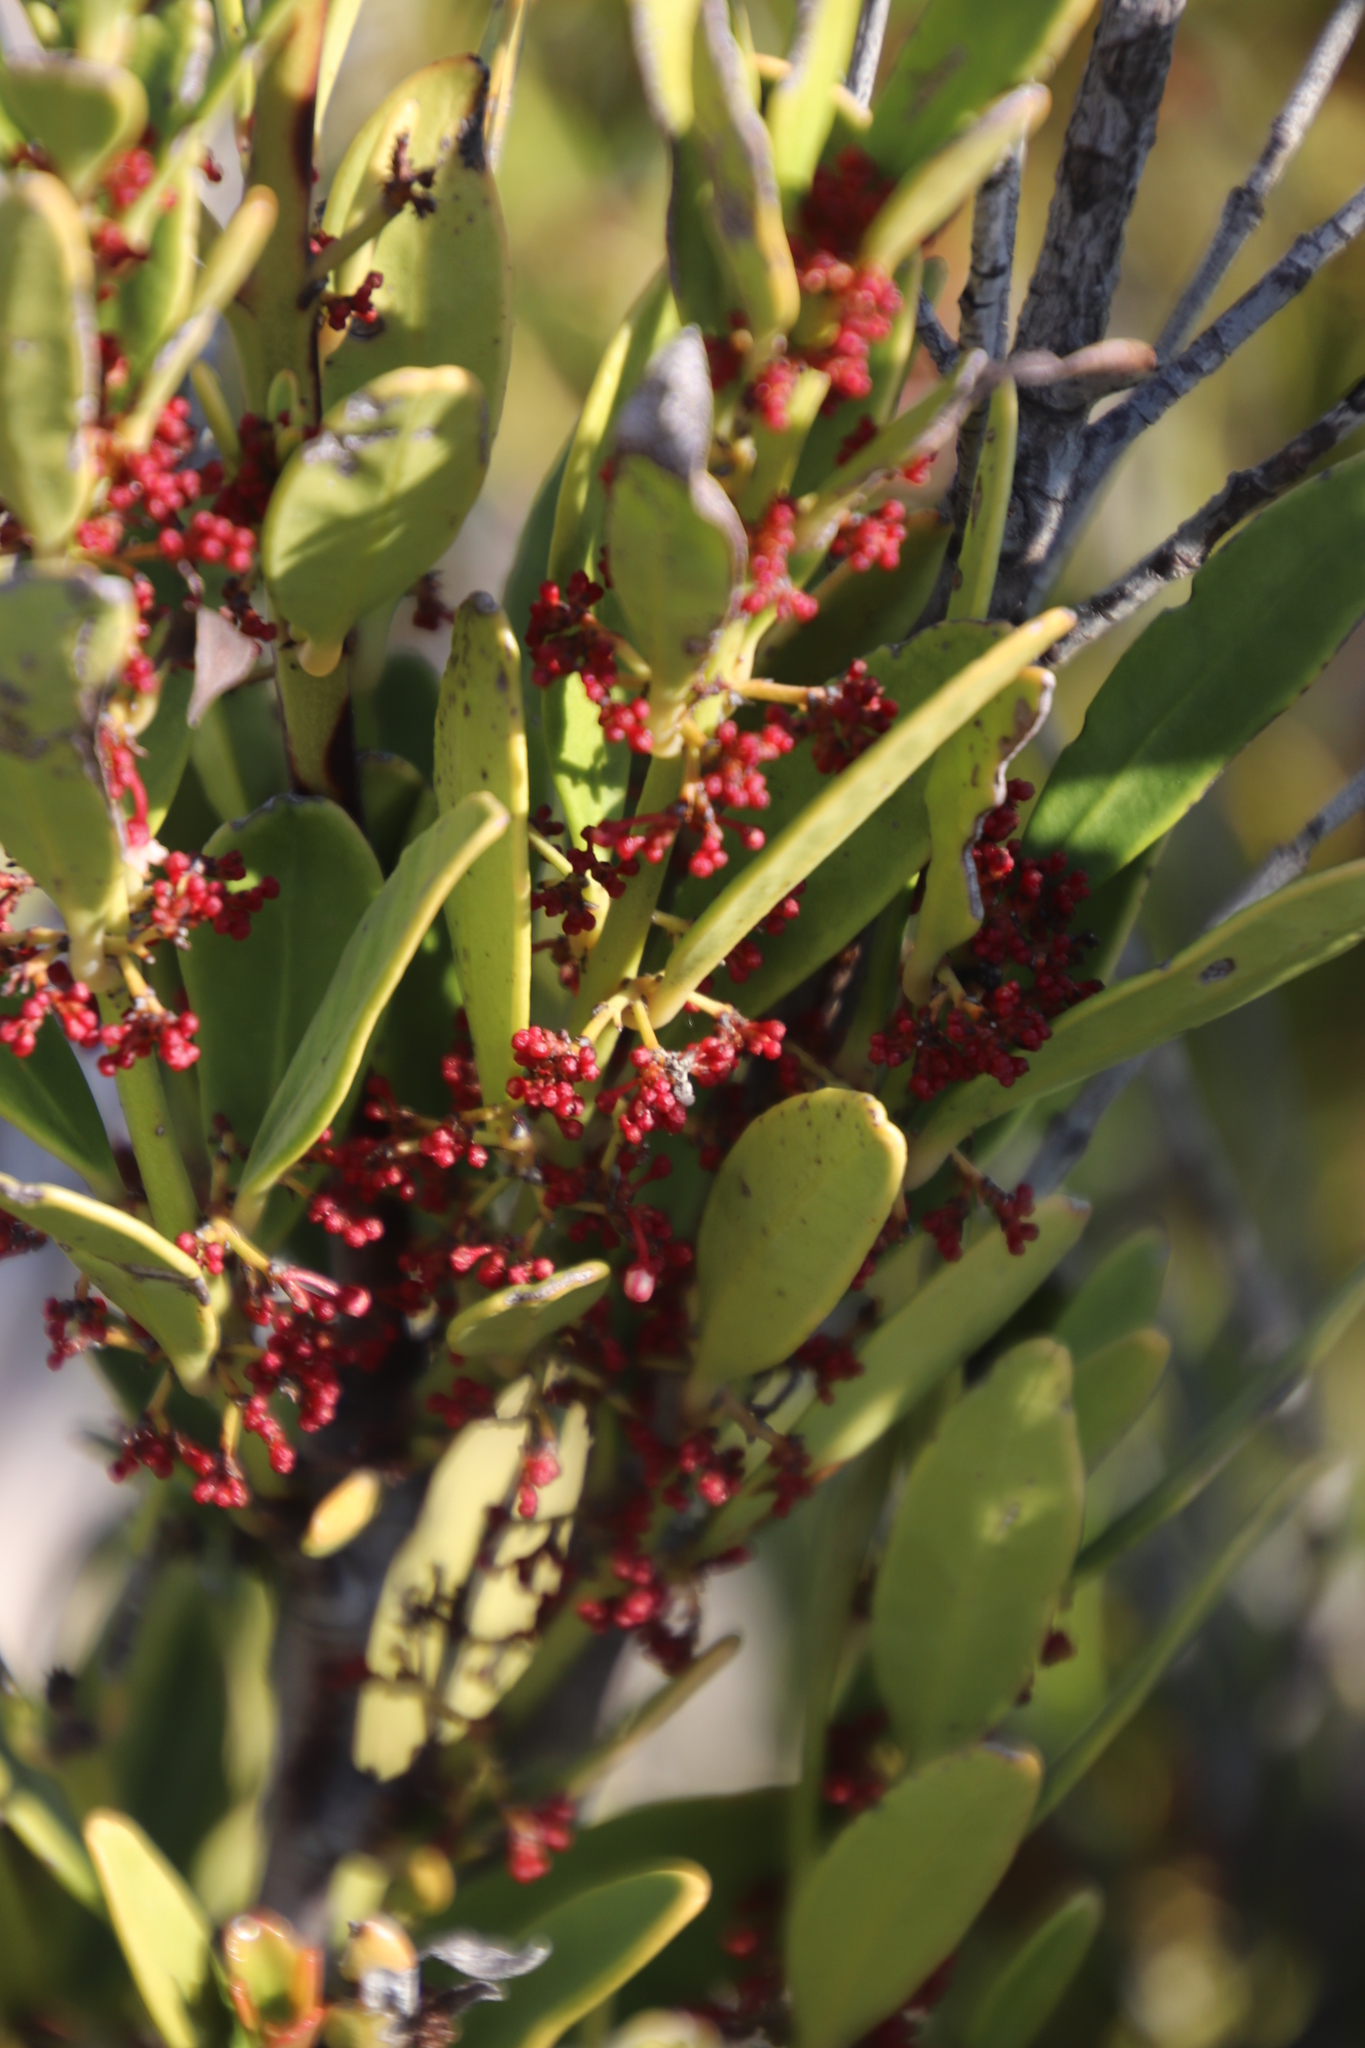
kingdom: Plantae
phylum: Tracheophyta
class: Magnoliopsida
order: Celastrales
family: Celastraceae
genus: Cassine
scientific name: Cassine parvifolia
